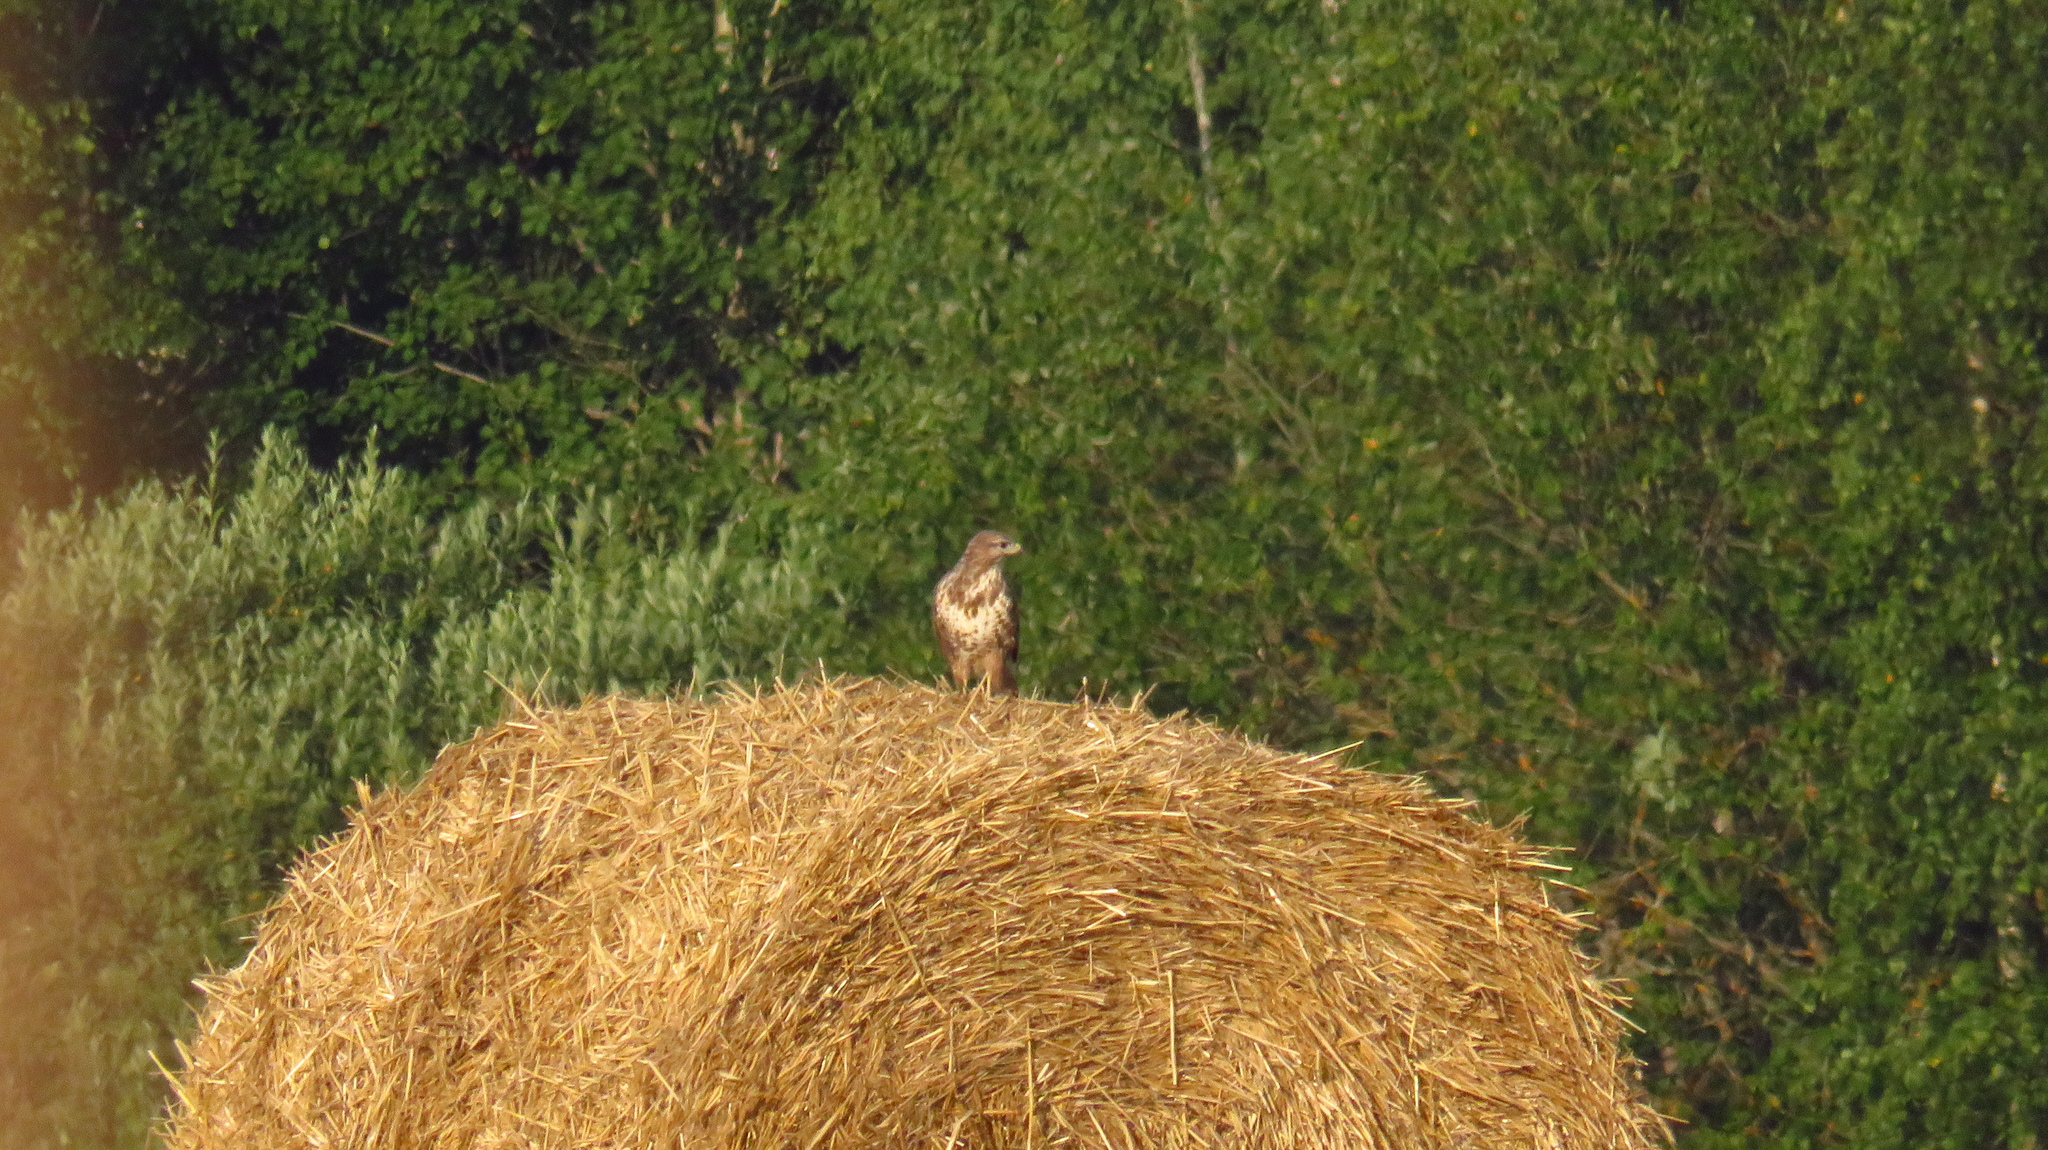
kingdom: Animalia
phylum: Chordata
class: Aves
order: Accipitriformes
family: Accipitridae
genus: Buteo
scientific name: Buteo buteo
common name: Common buzzard
